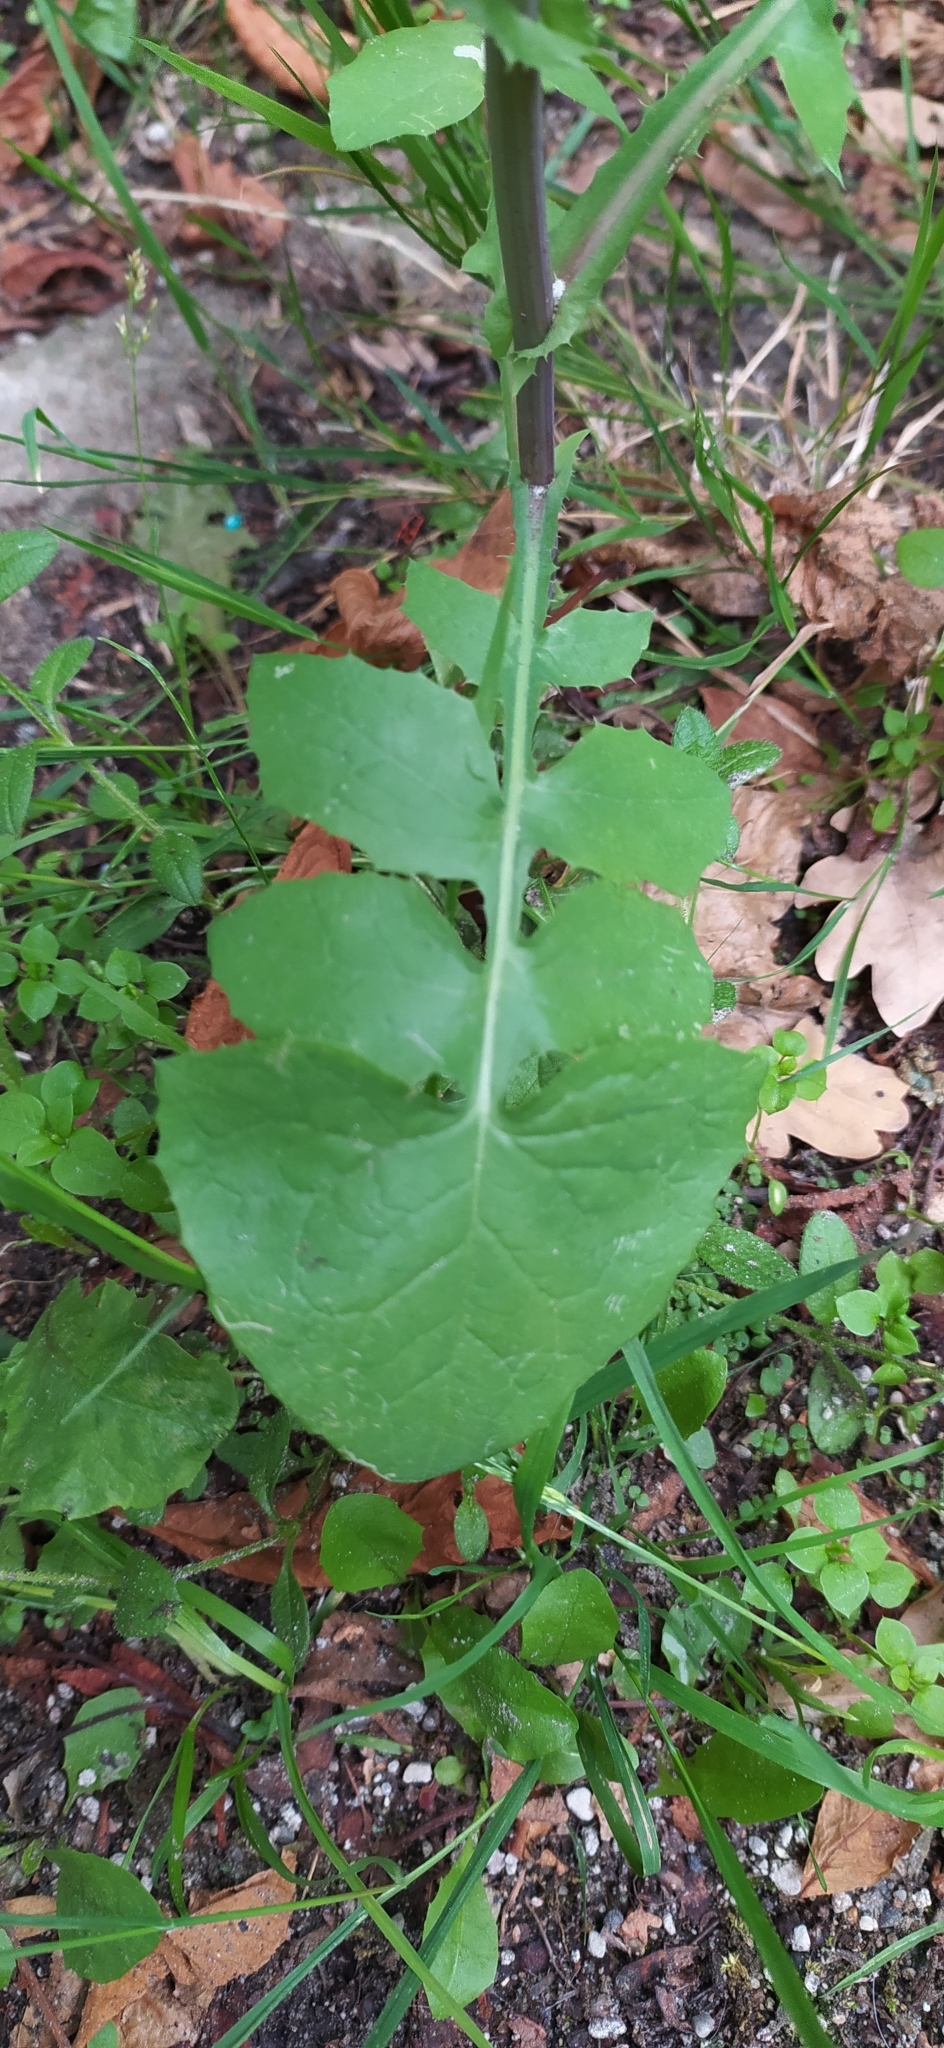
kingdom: Plantae
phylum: Tracheophyta
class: Magnoliopsida
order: Asterales
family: Asteraceae
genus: Sonchus
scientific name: Sonchus oleraceus
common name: Common sowthistle
